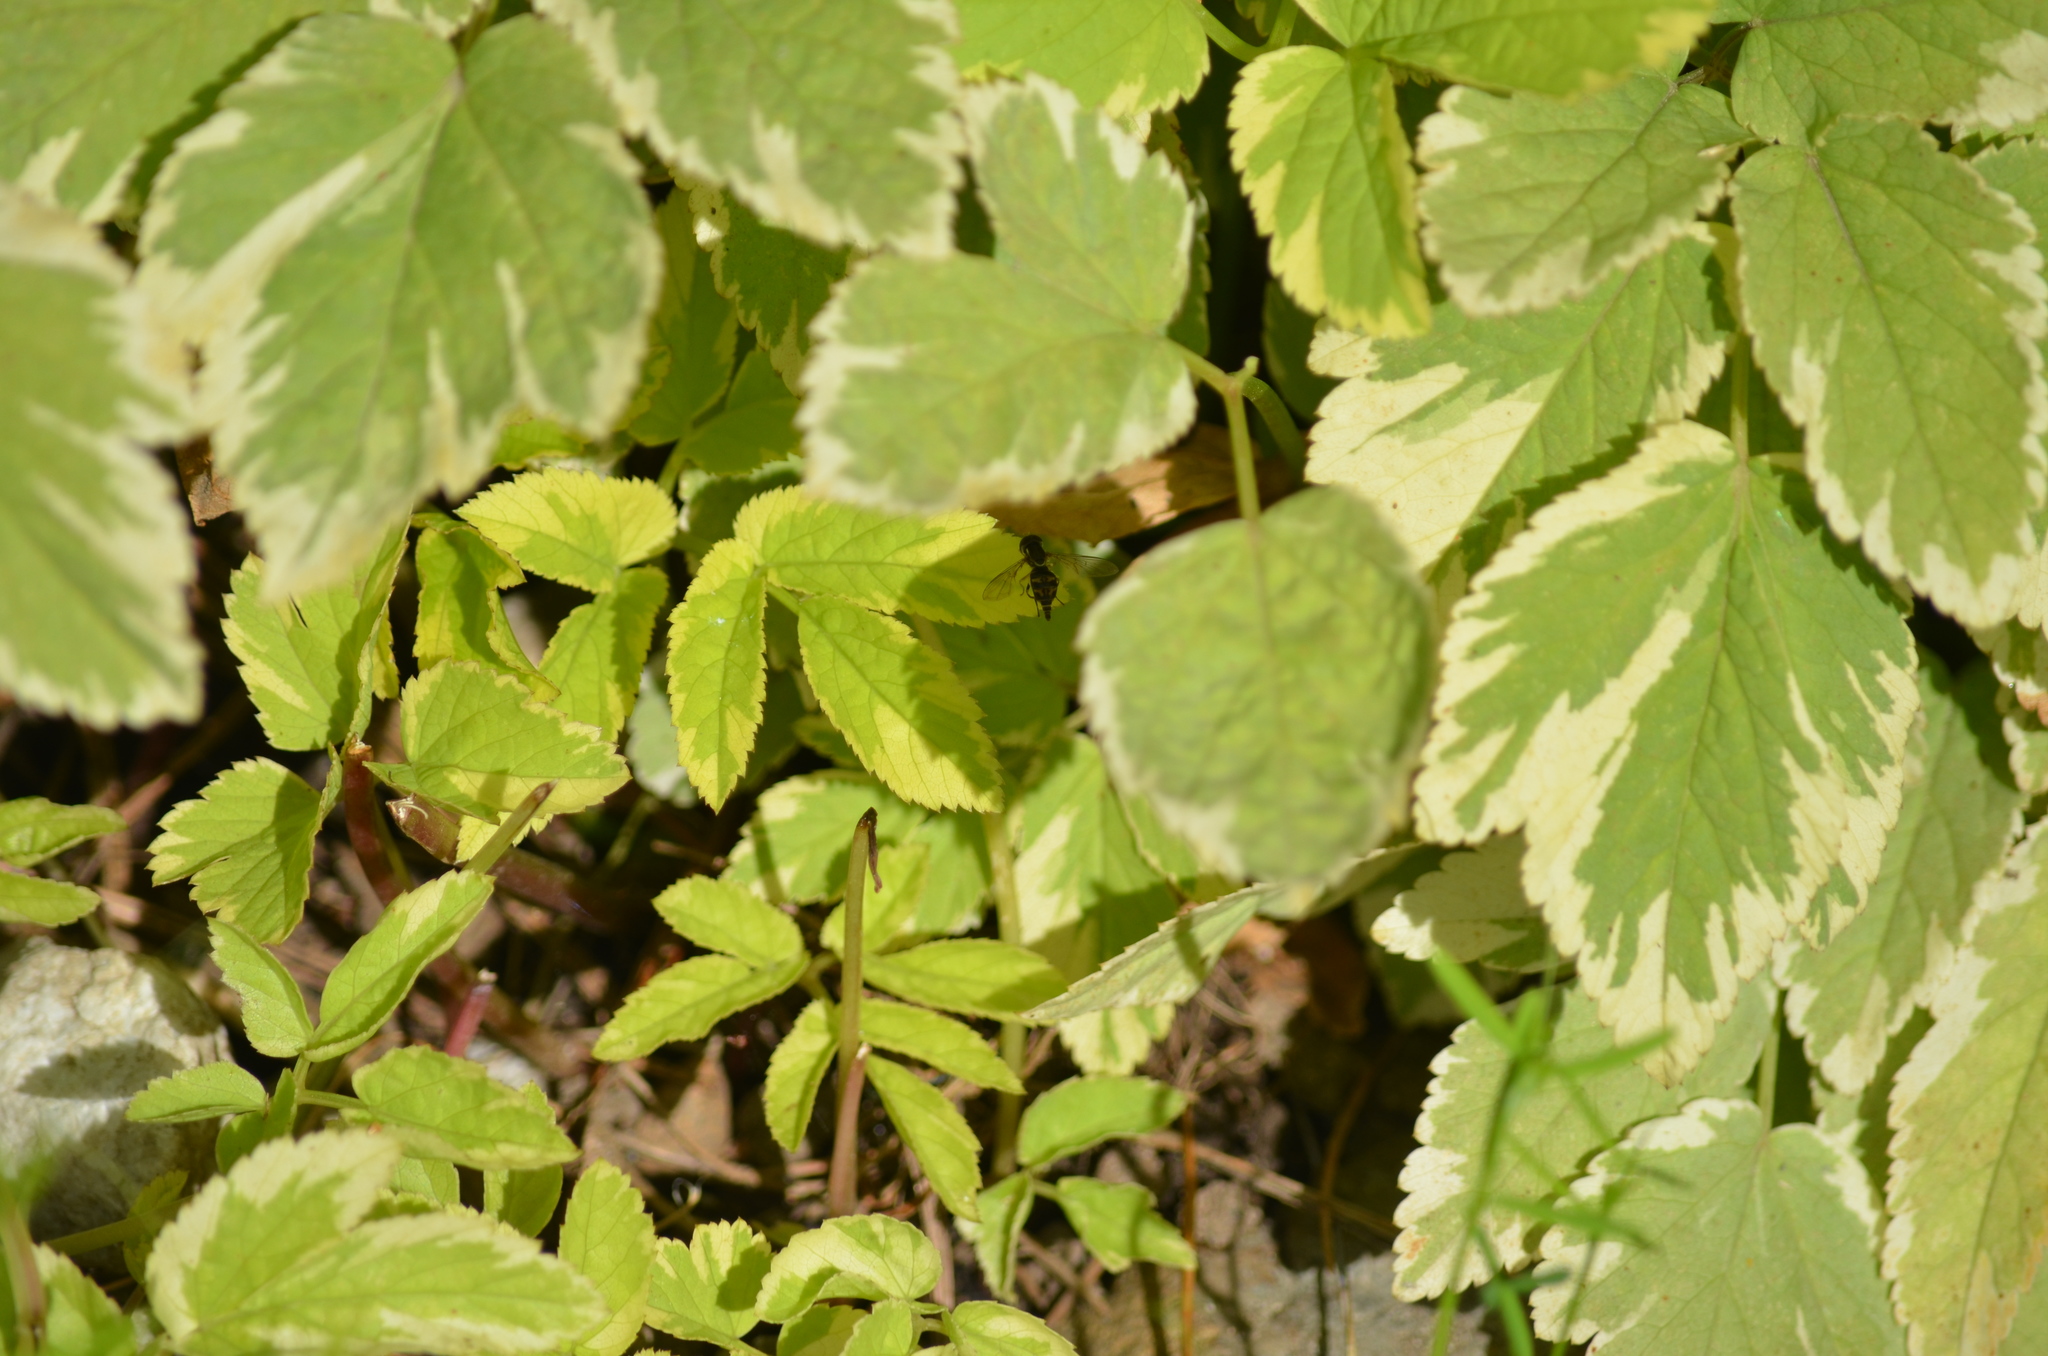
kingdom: Animalia
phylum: Arthropoda
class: Insecta
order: Diptera
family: Syrphidae
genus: Toxomerus
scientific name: Toxomerus occidentalis
